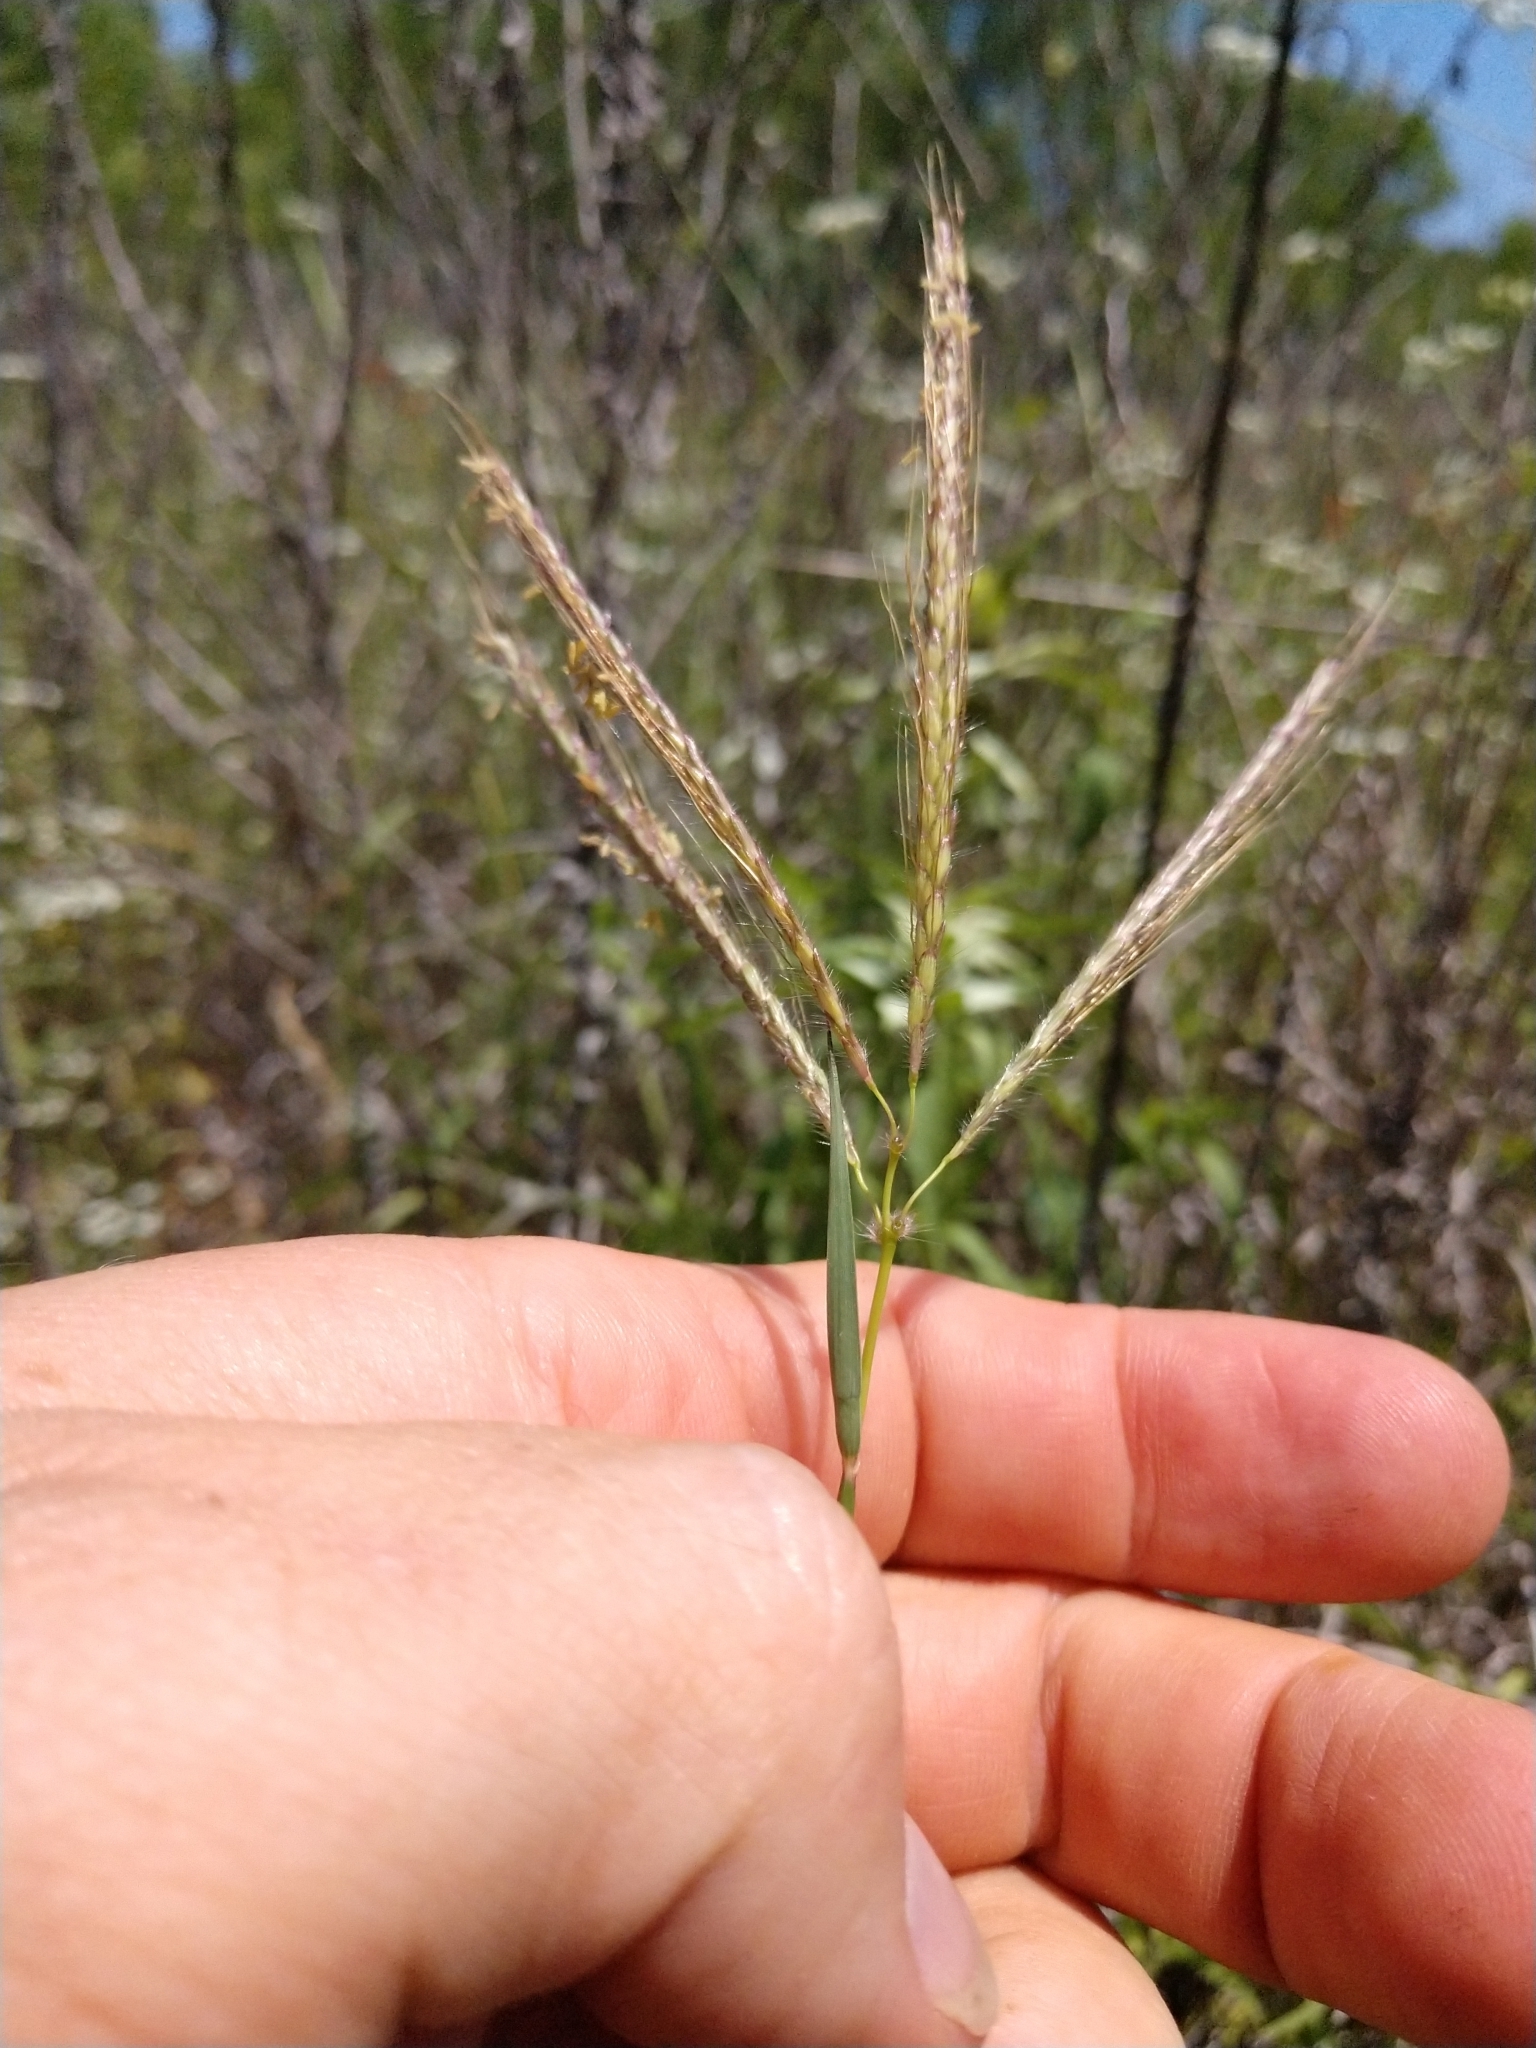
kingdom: Plantae
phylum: Tracheophyta
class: Liliopsida
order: Poales
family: Poaceae
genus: Dichanthium
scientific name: Dichanthium annulatum
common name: Kleberg's bluestem
